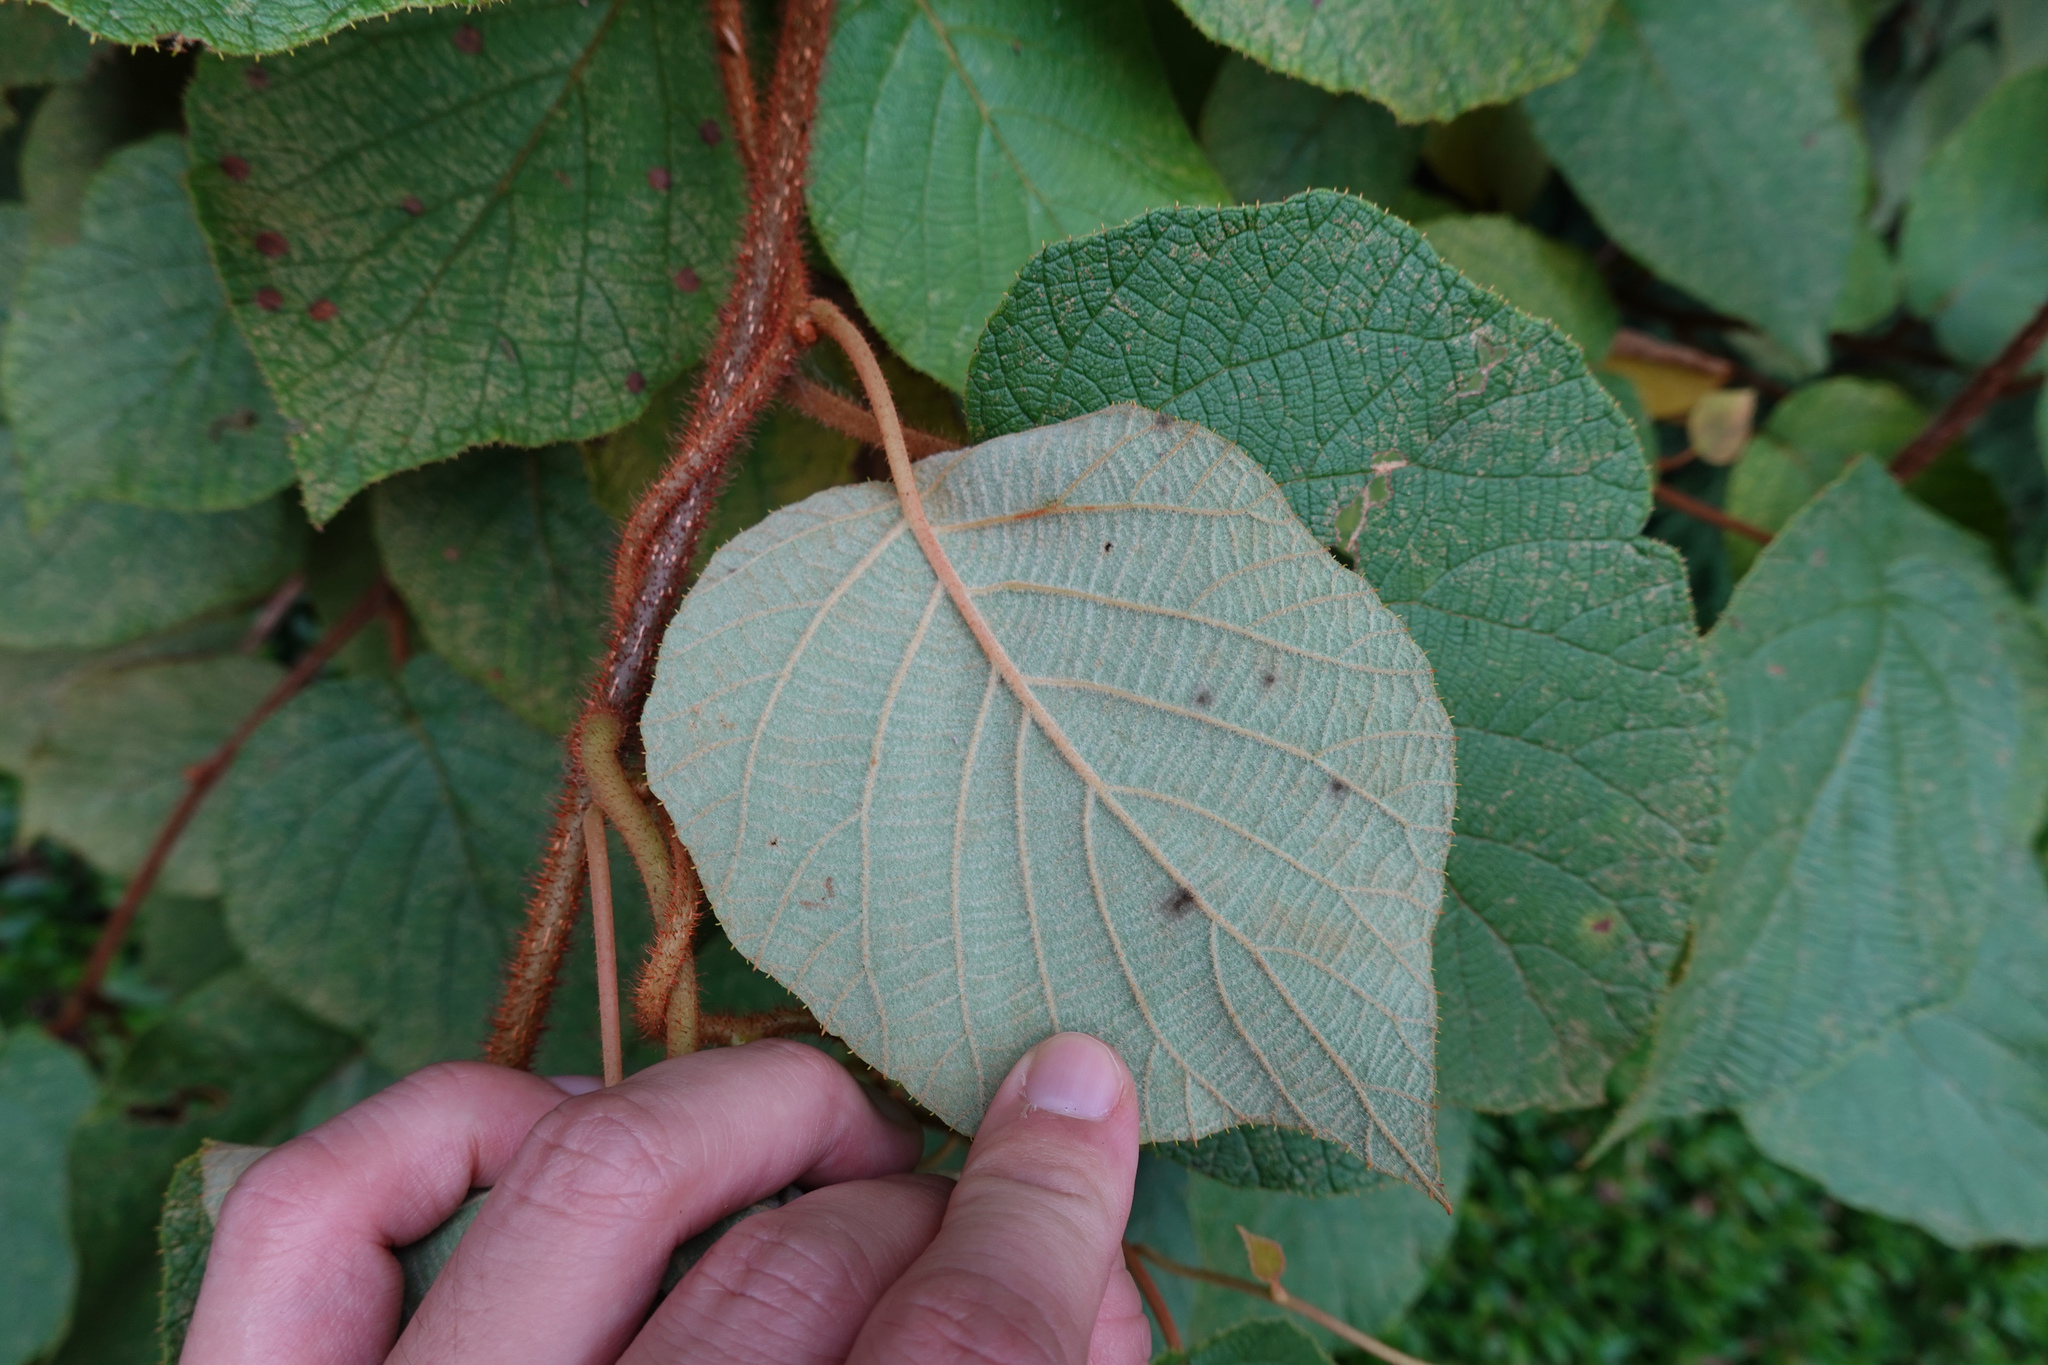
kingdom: Plantae
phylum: Tracheophyta
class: Magnoliopsida
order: Ericales
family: Actinidiaceae
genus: Actinidia
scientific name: Actinidia chinensis
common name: Kiwi
